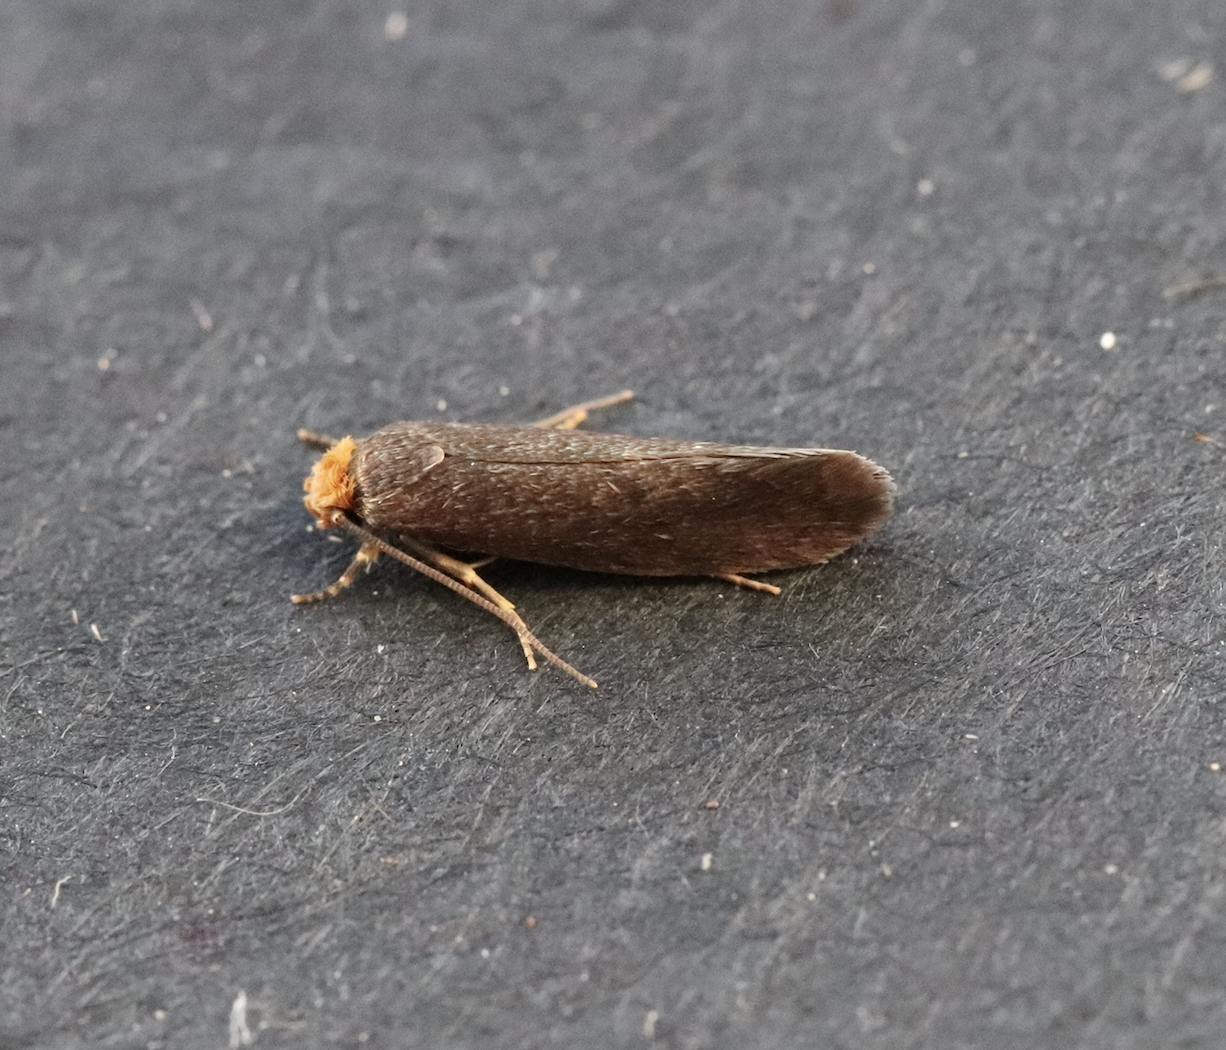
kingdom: Animalia
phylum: Arthropoda
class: Insecta
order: Lepidoptera
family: Tineidae
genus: Cephimallota
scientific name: Cephimallota crassiflavella
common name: Simple clothes
